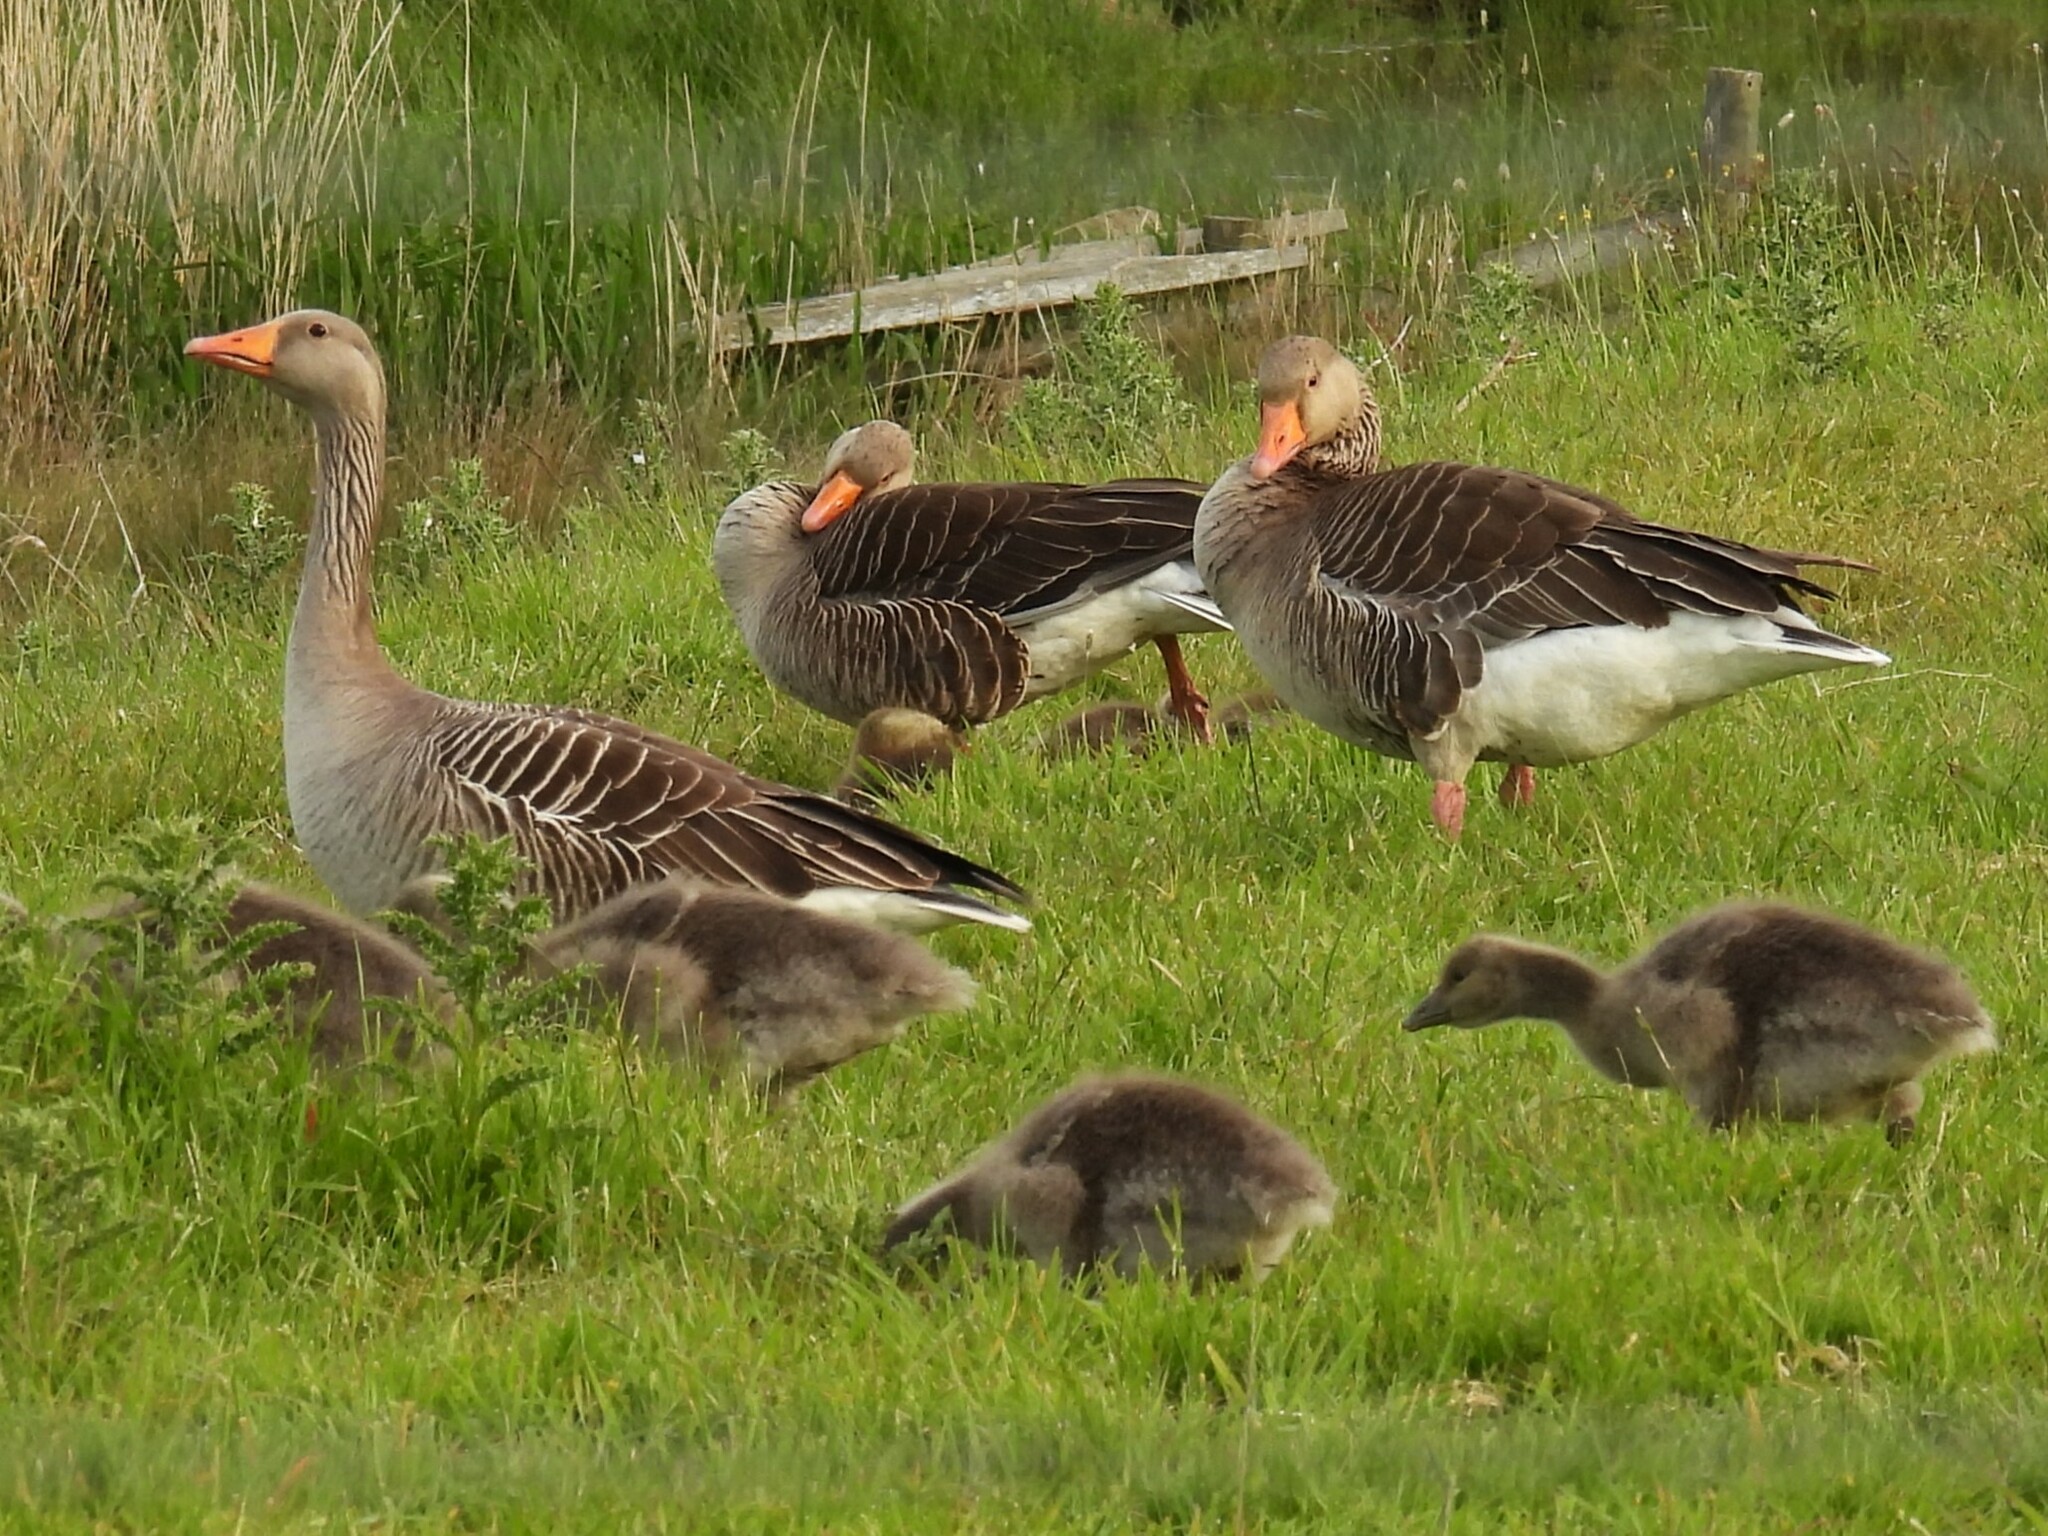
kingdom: Animalia
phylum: Chordata
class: Aves
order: Anseriformes
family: Anatidae
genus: Anser
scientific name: Anser anser
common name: Greylag goose
